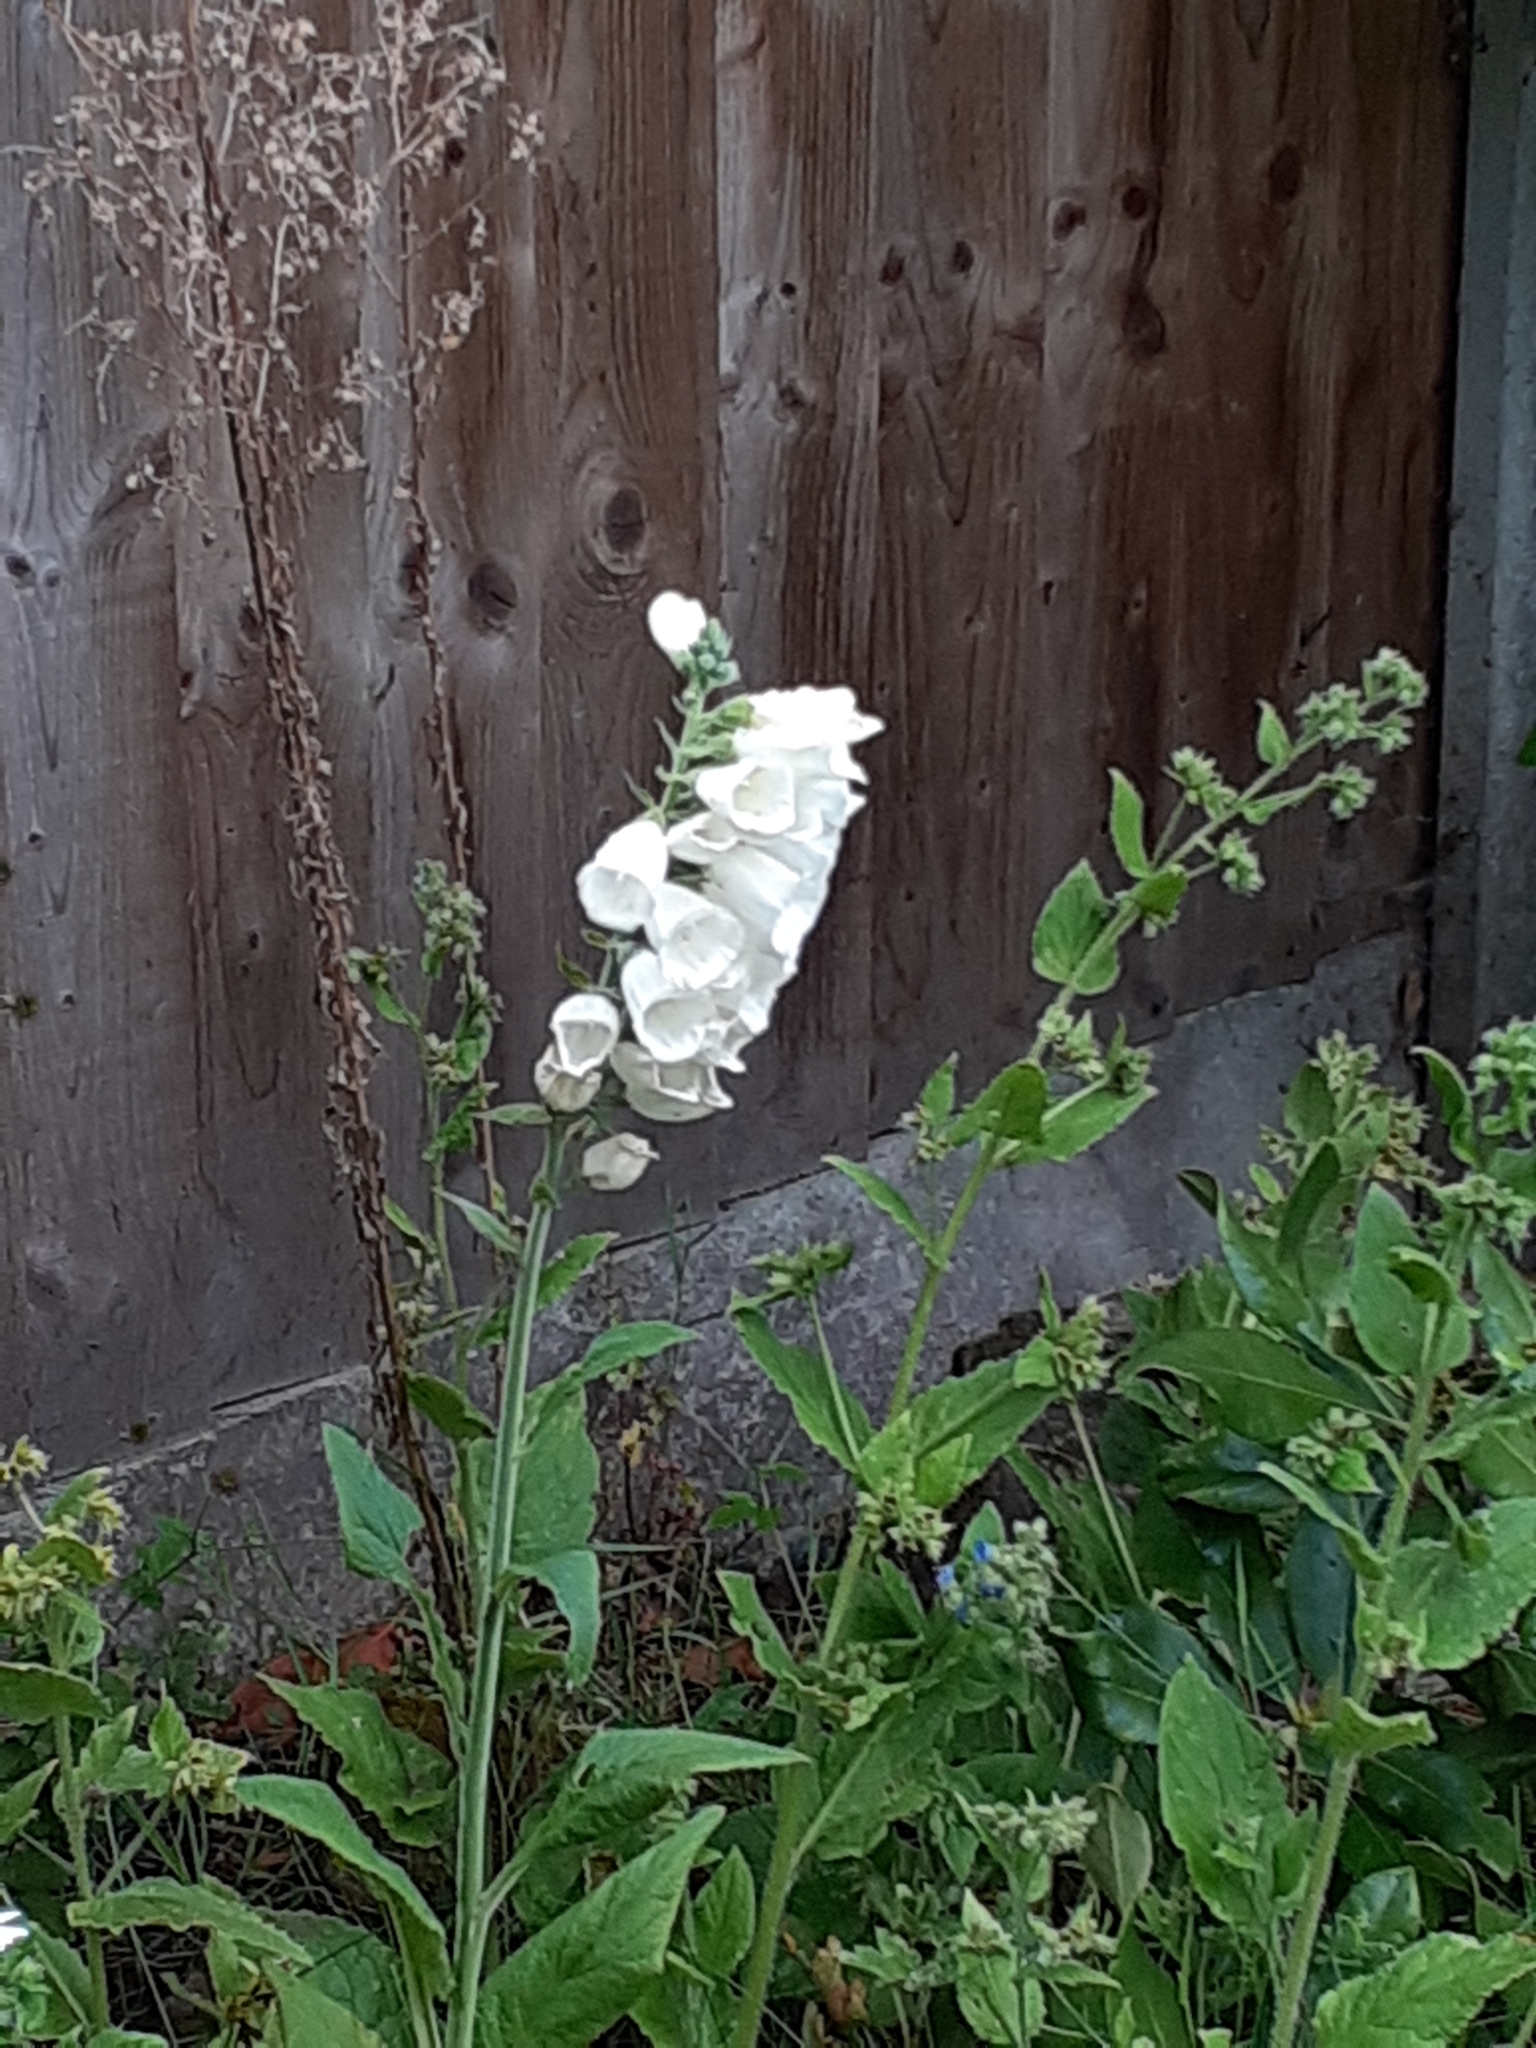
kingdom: Plantae
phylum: Tracheophyta
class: Magnoliopsida
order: Lamiales
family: Plantaginaceae
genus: Digitalis
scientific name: Digitalis purpurea
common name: Foxglove
